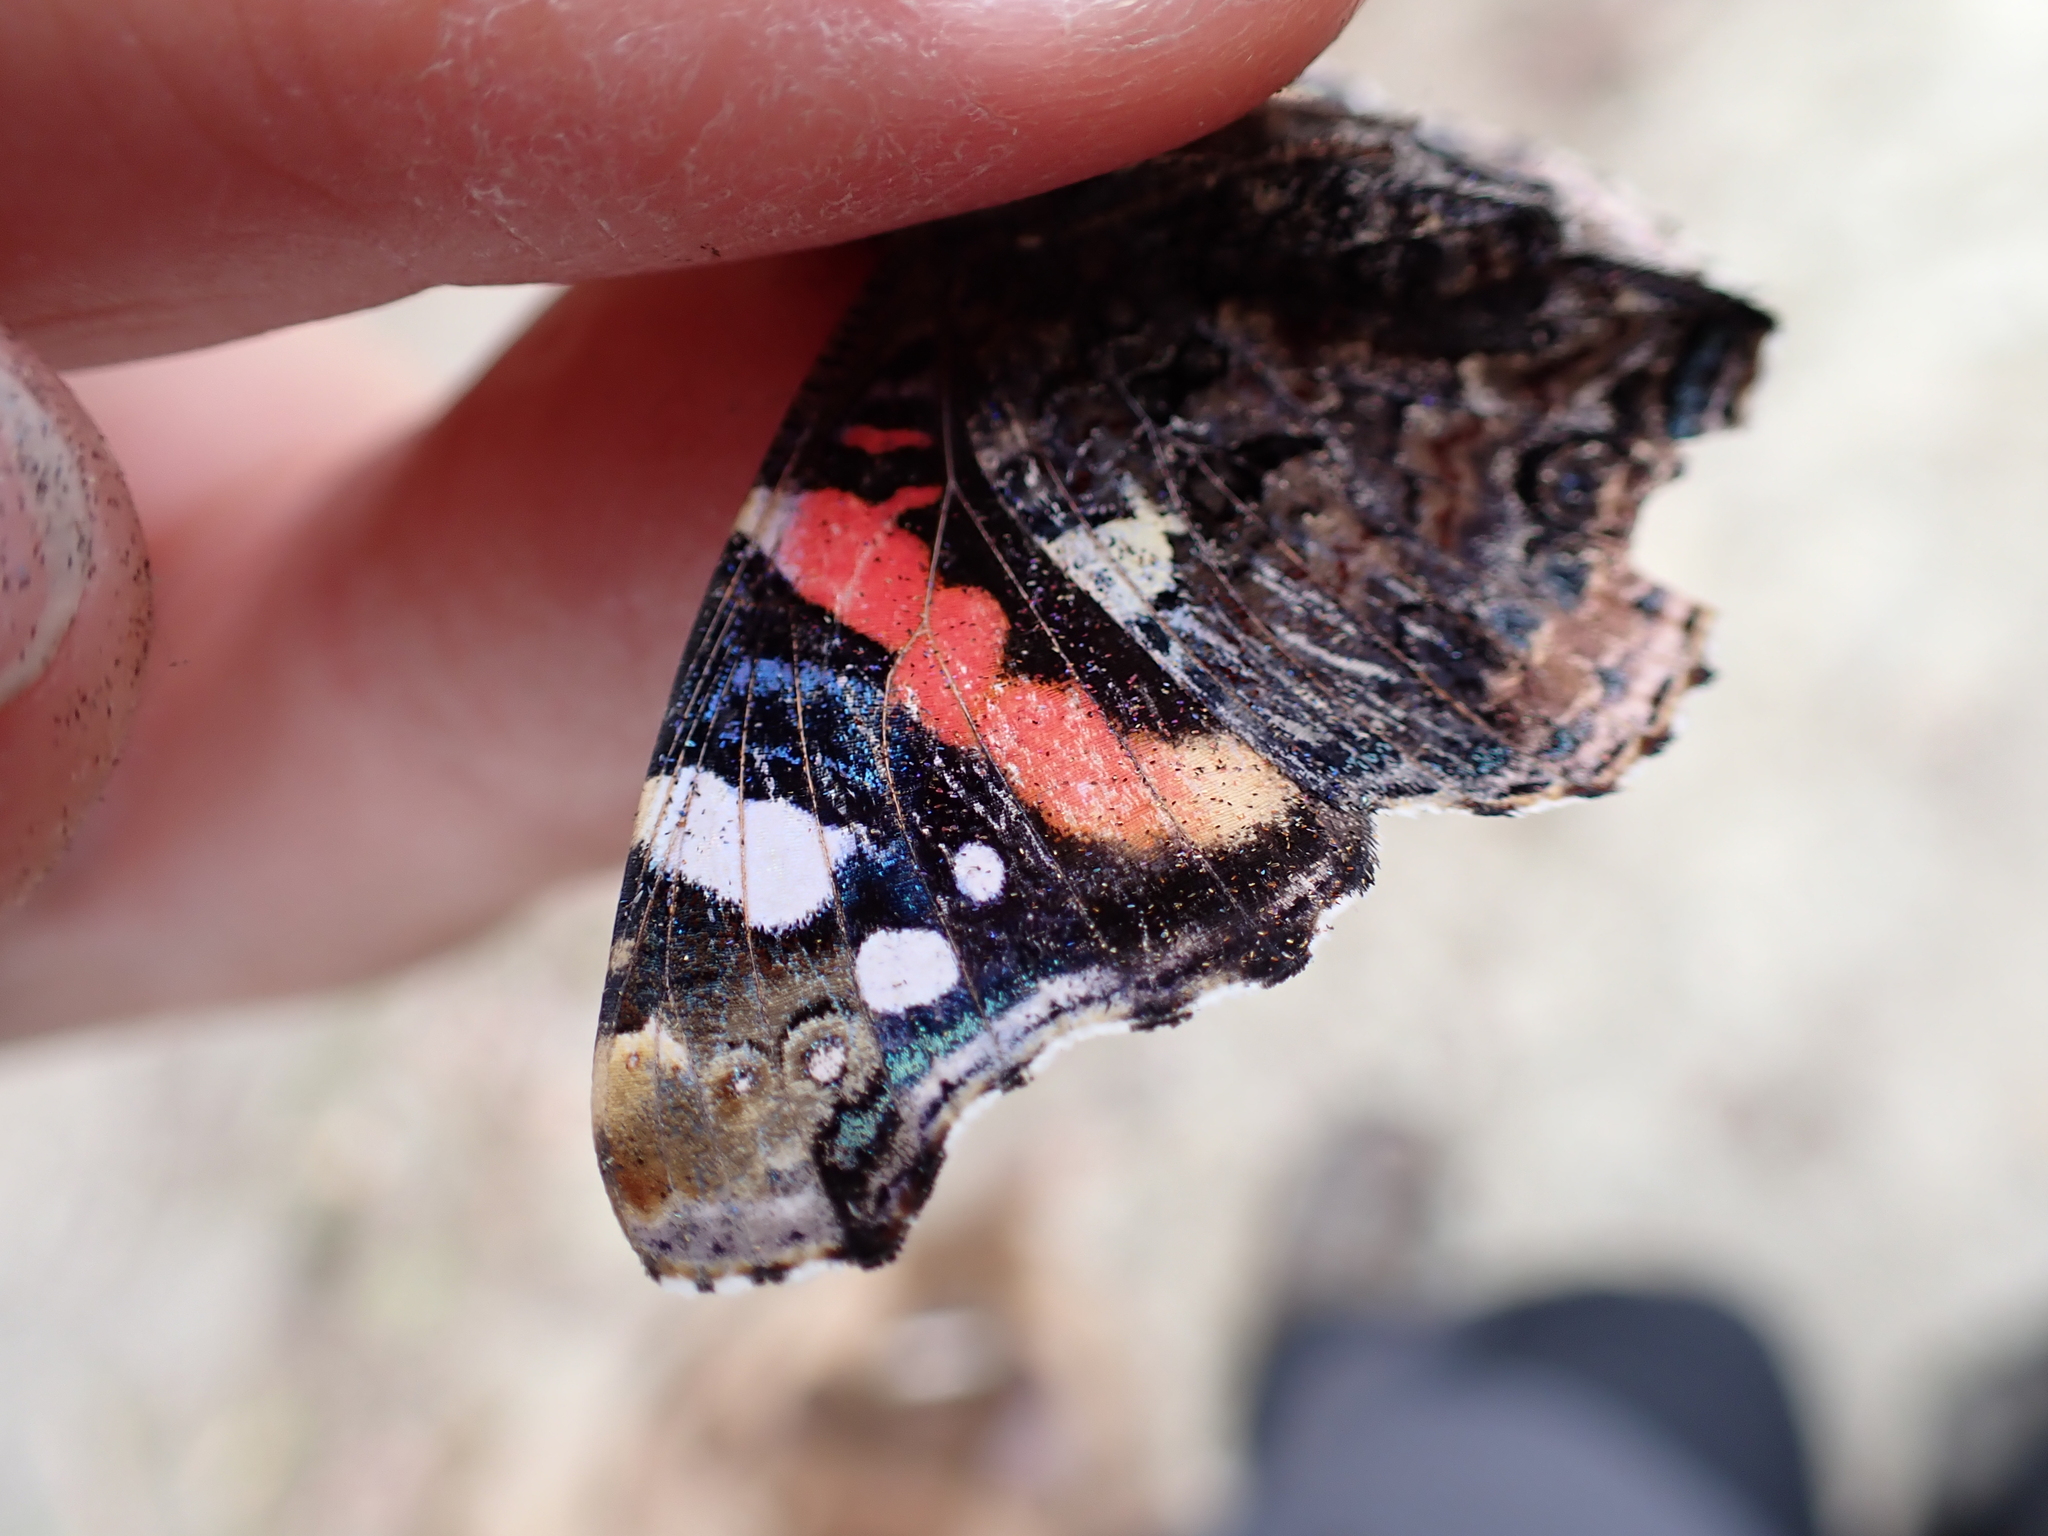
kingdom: Animalia
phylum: Arthropoda
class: Insecta
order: Lepidoptera
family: Nymphalidae
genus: Vanessa
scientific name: Vanessa atalanta
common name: Red admiral
